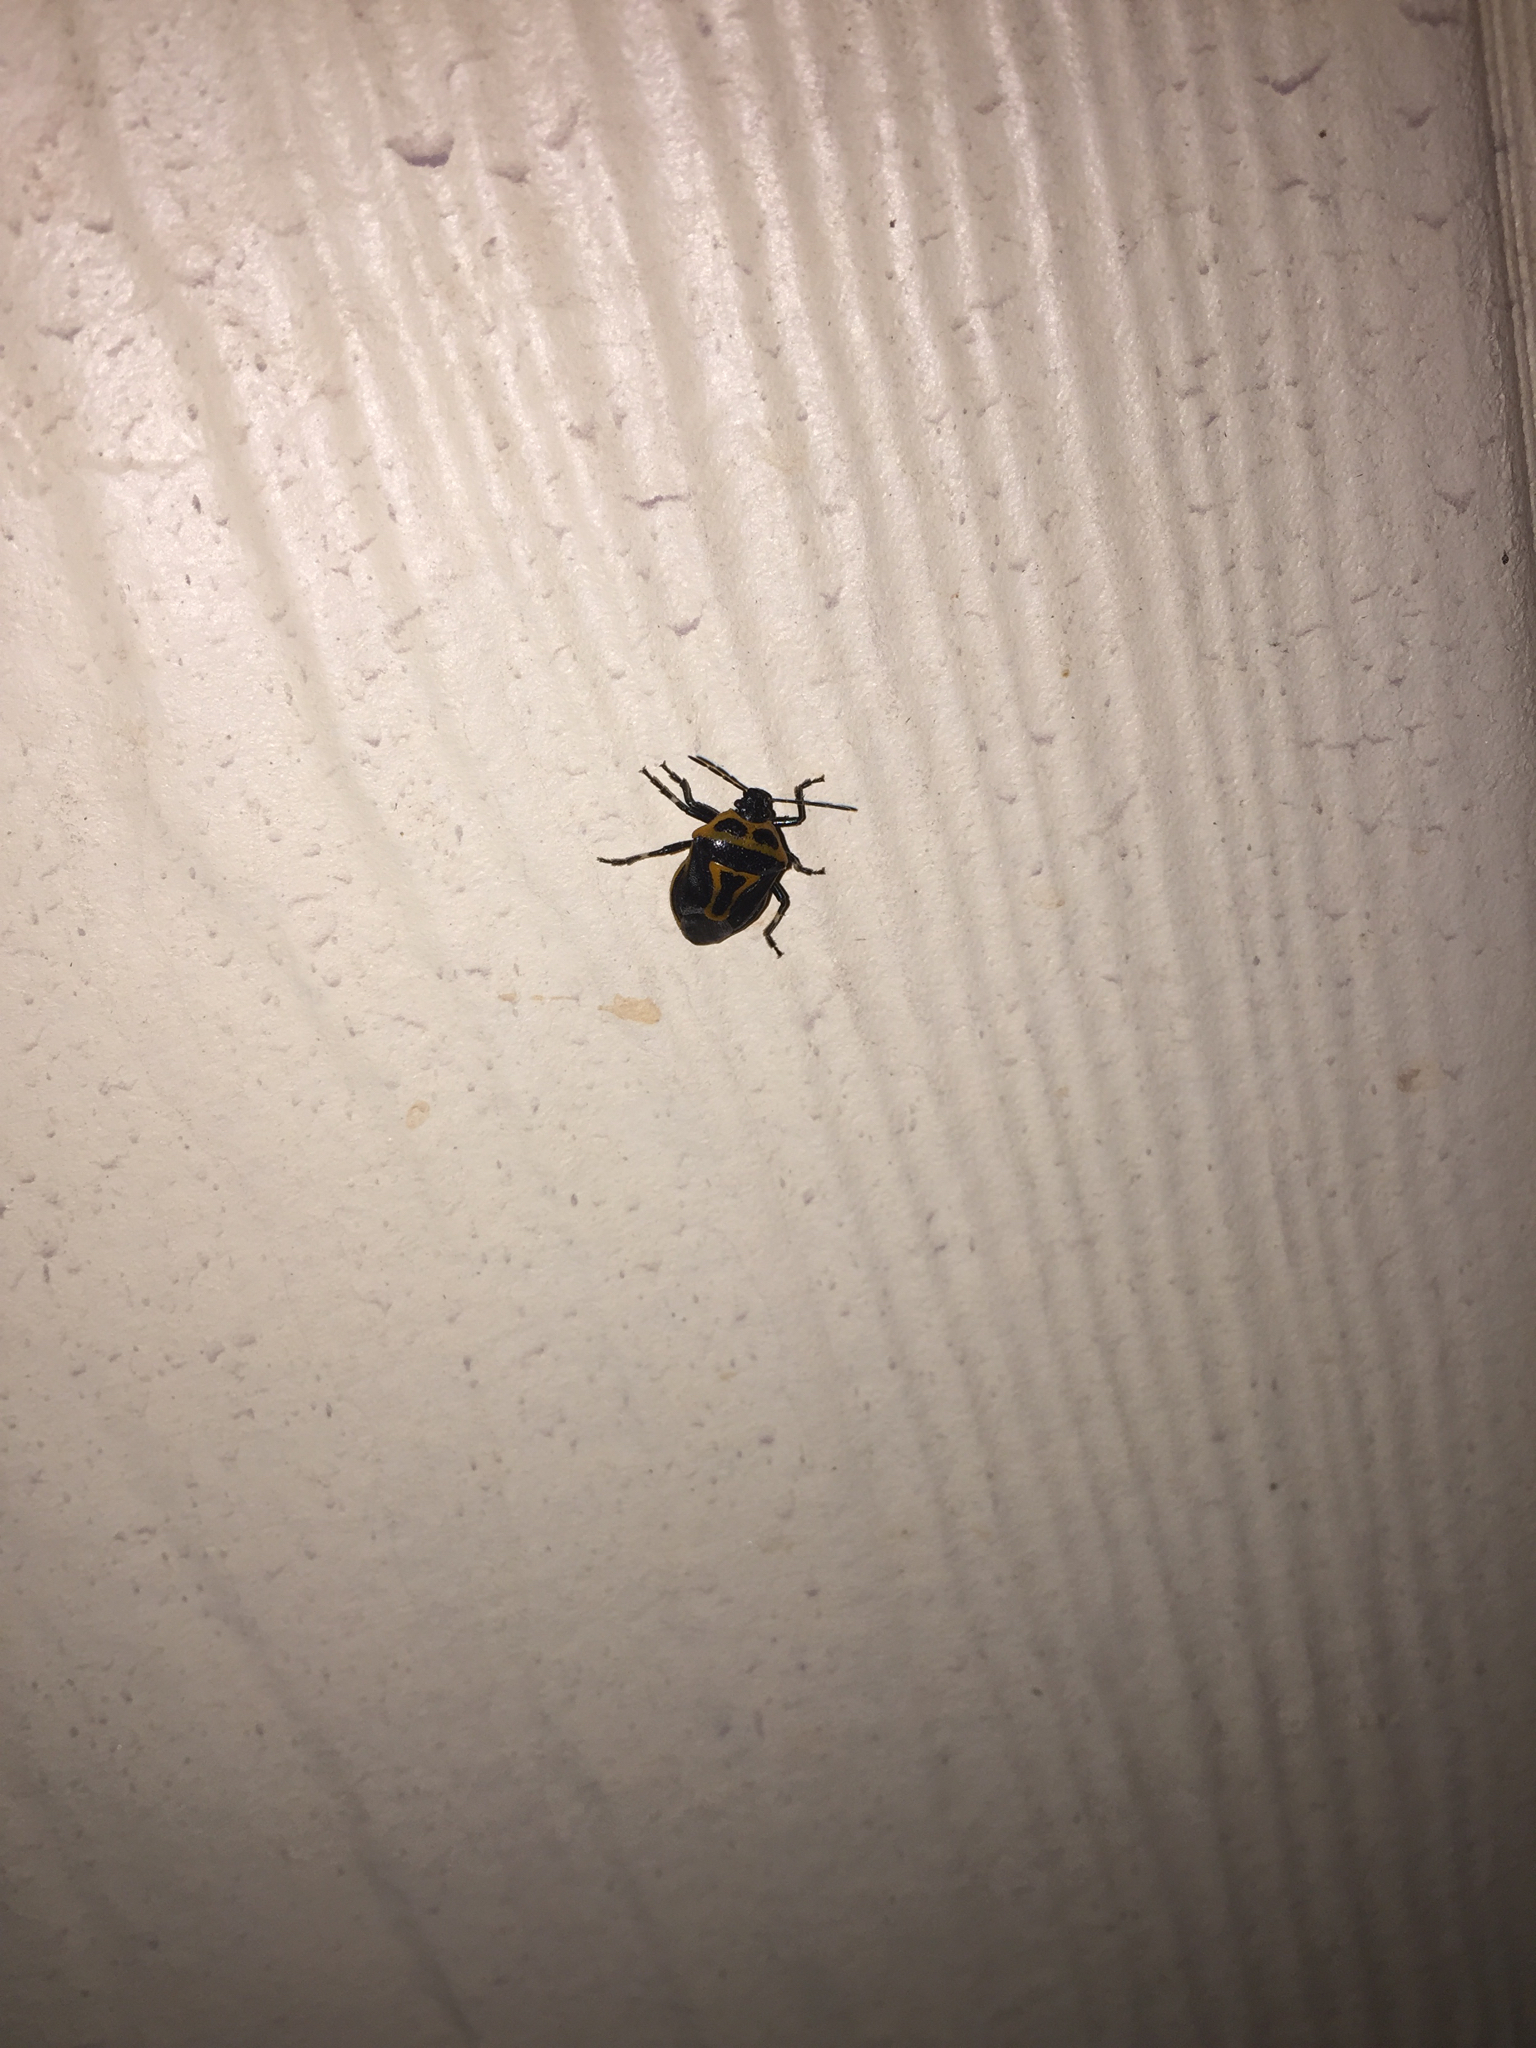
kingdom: Animalia
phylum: Arthropoda
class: Insecta
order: Hemiptera
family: Pentatomidae
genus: Perillus
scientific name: Perillus bioculatus
